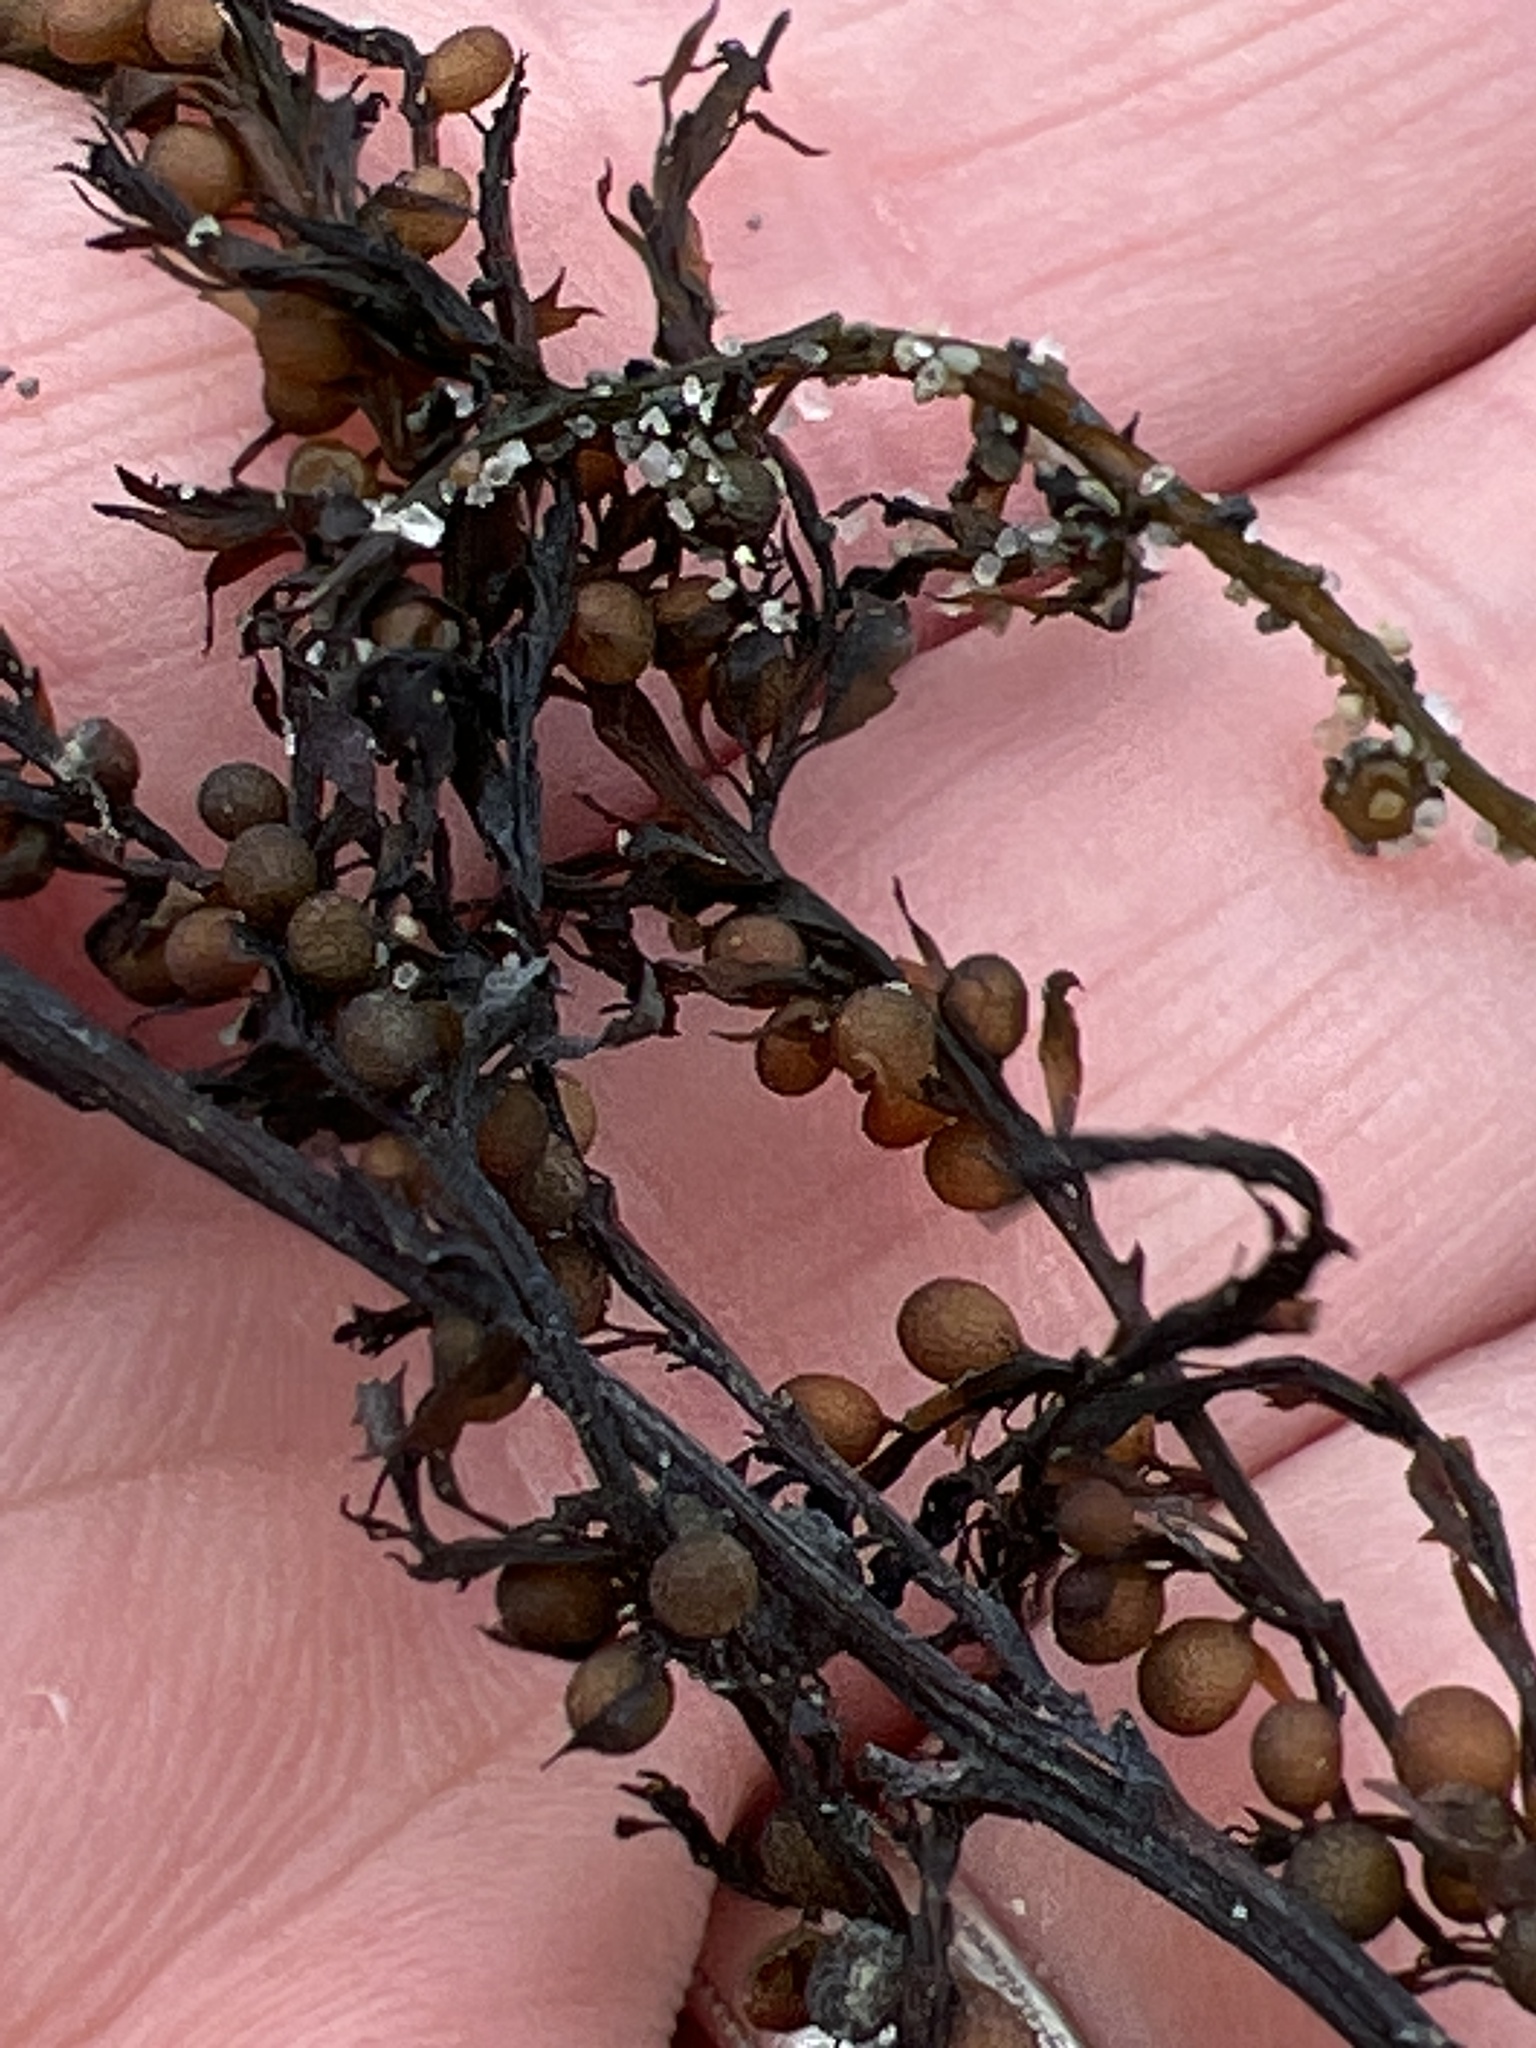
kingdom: Chromista
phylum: Ochrophyta
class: Phaeophyceae
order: Fucales
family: Sargassaceae
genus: Sargassum
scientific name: Sargassum muticum
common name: Japweed
